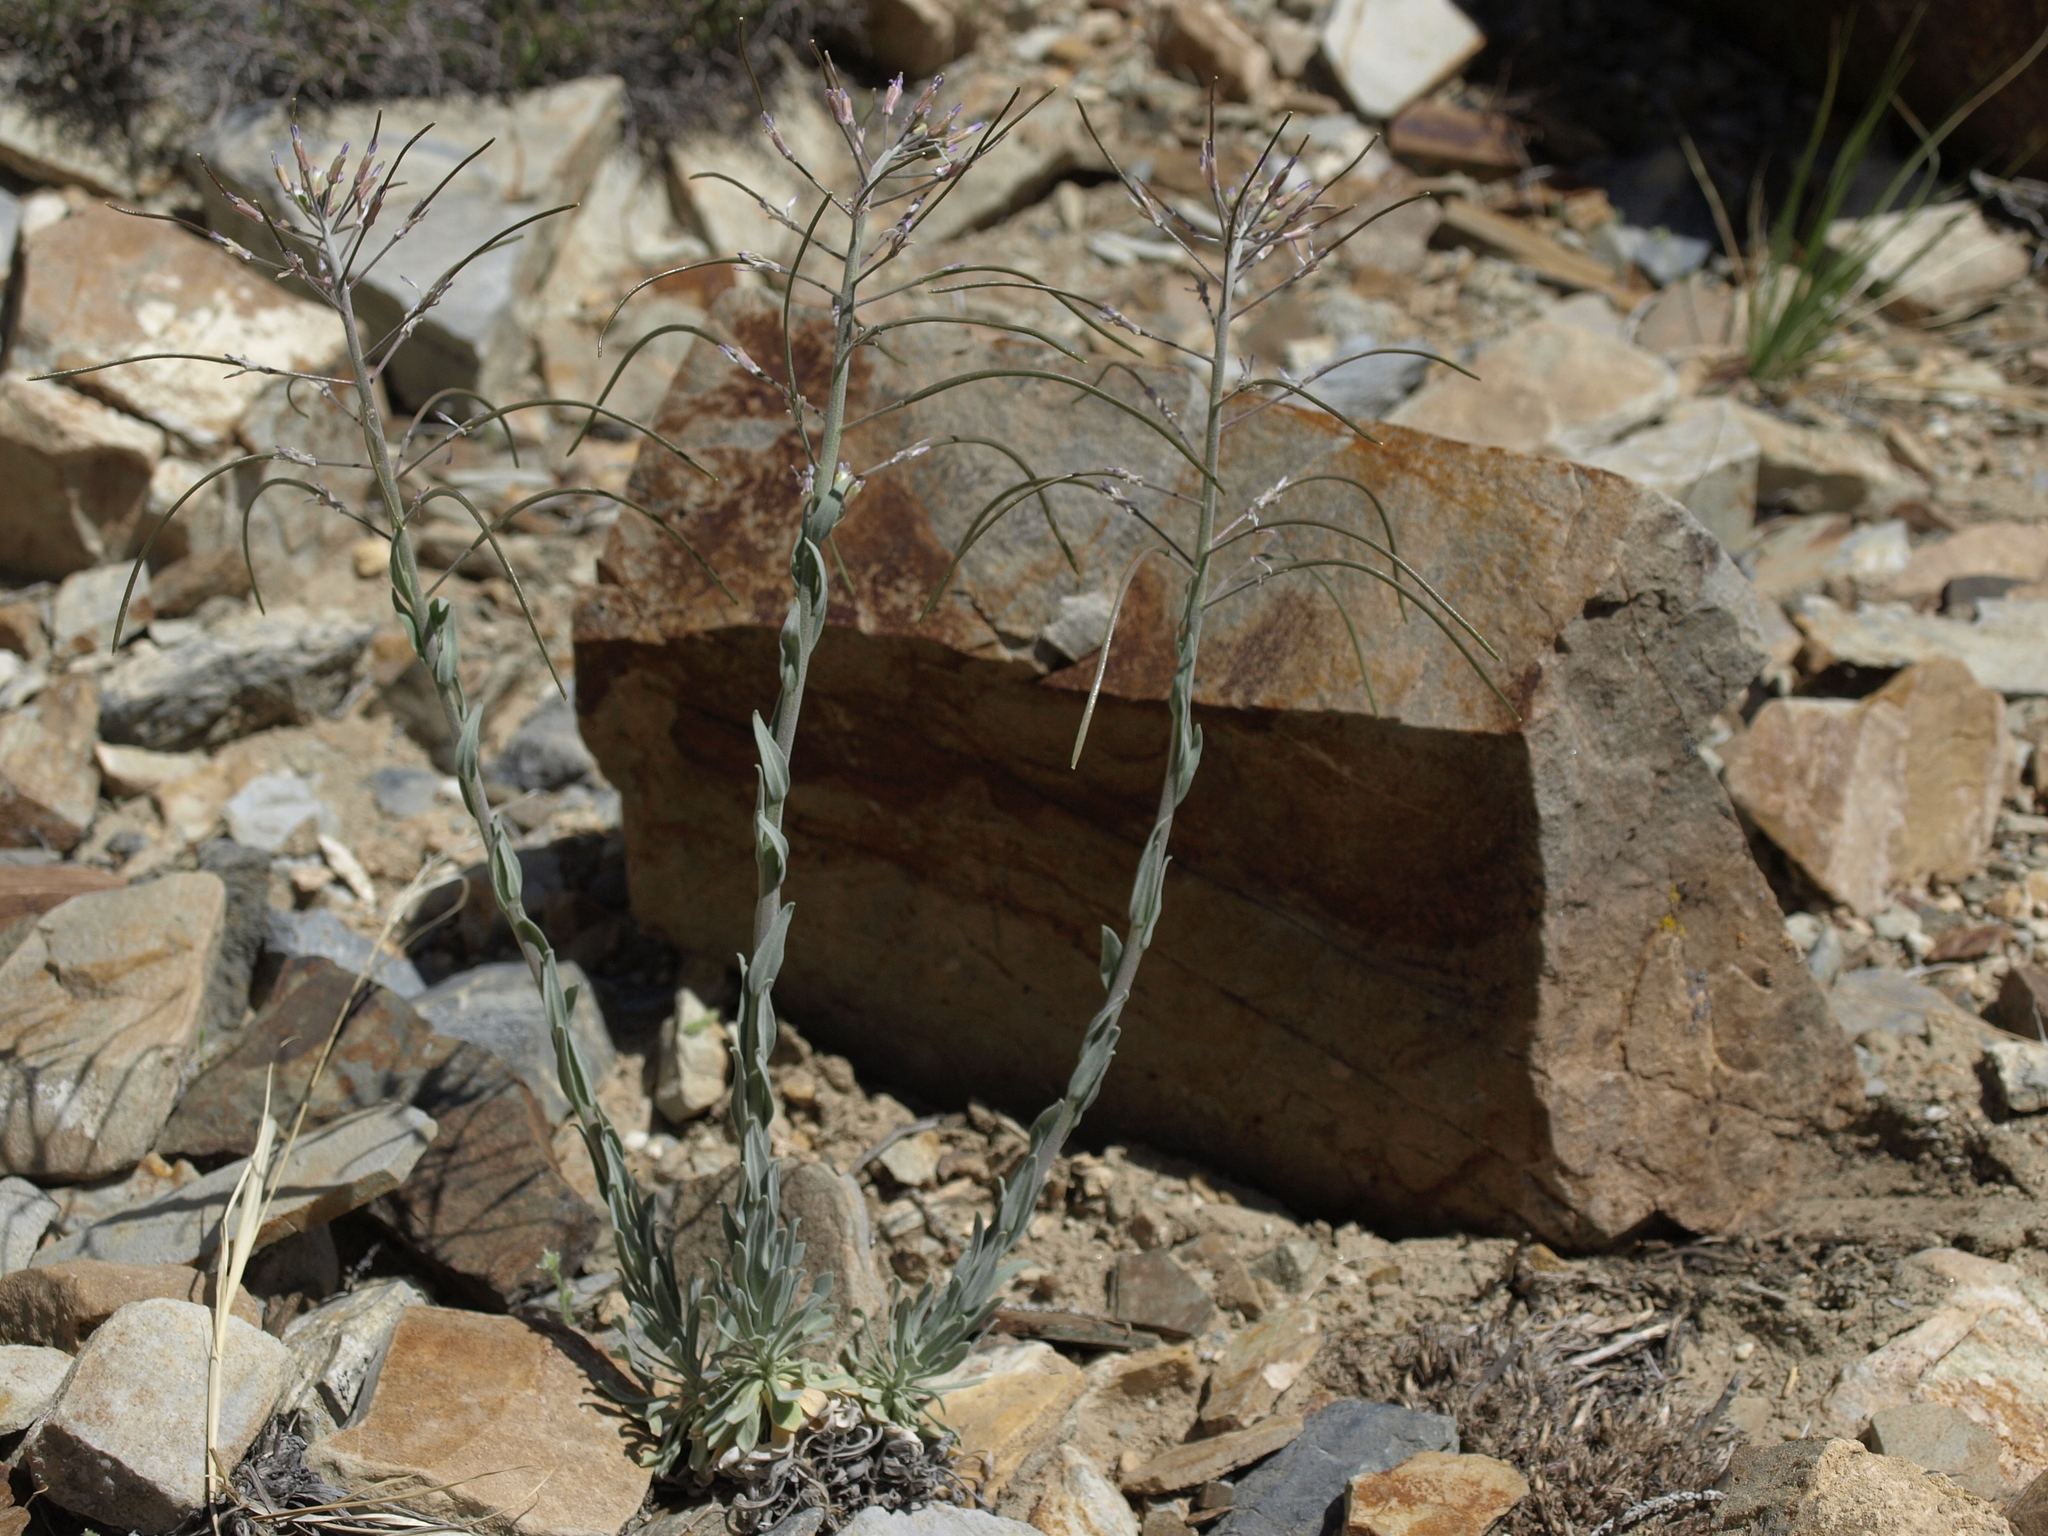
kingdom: Plantae
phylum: Tracheophyta
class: Magnoliopsida
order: Brassicales
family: Brassicaceae
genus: Boechera
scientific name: Boechera shockleyi
